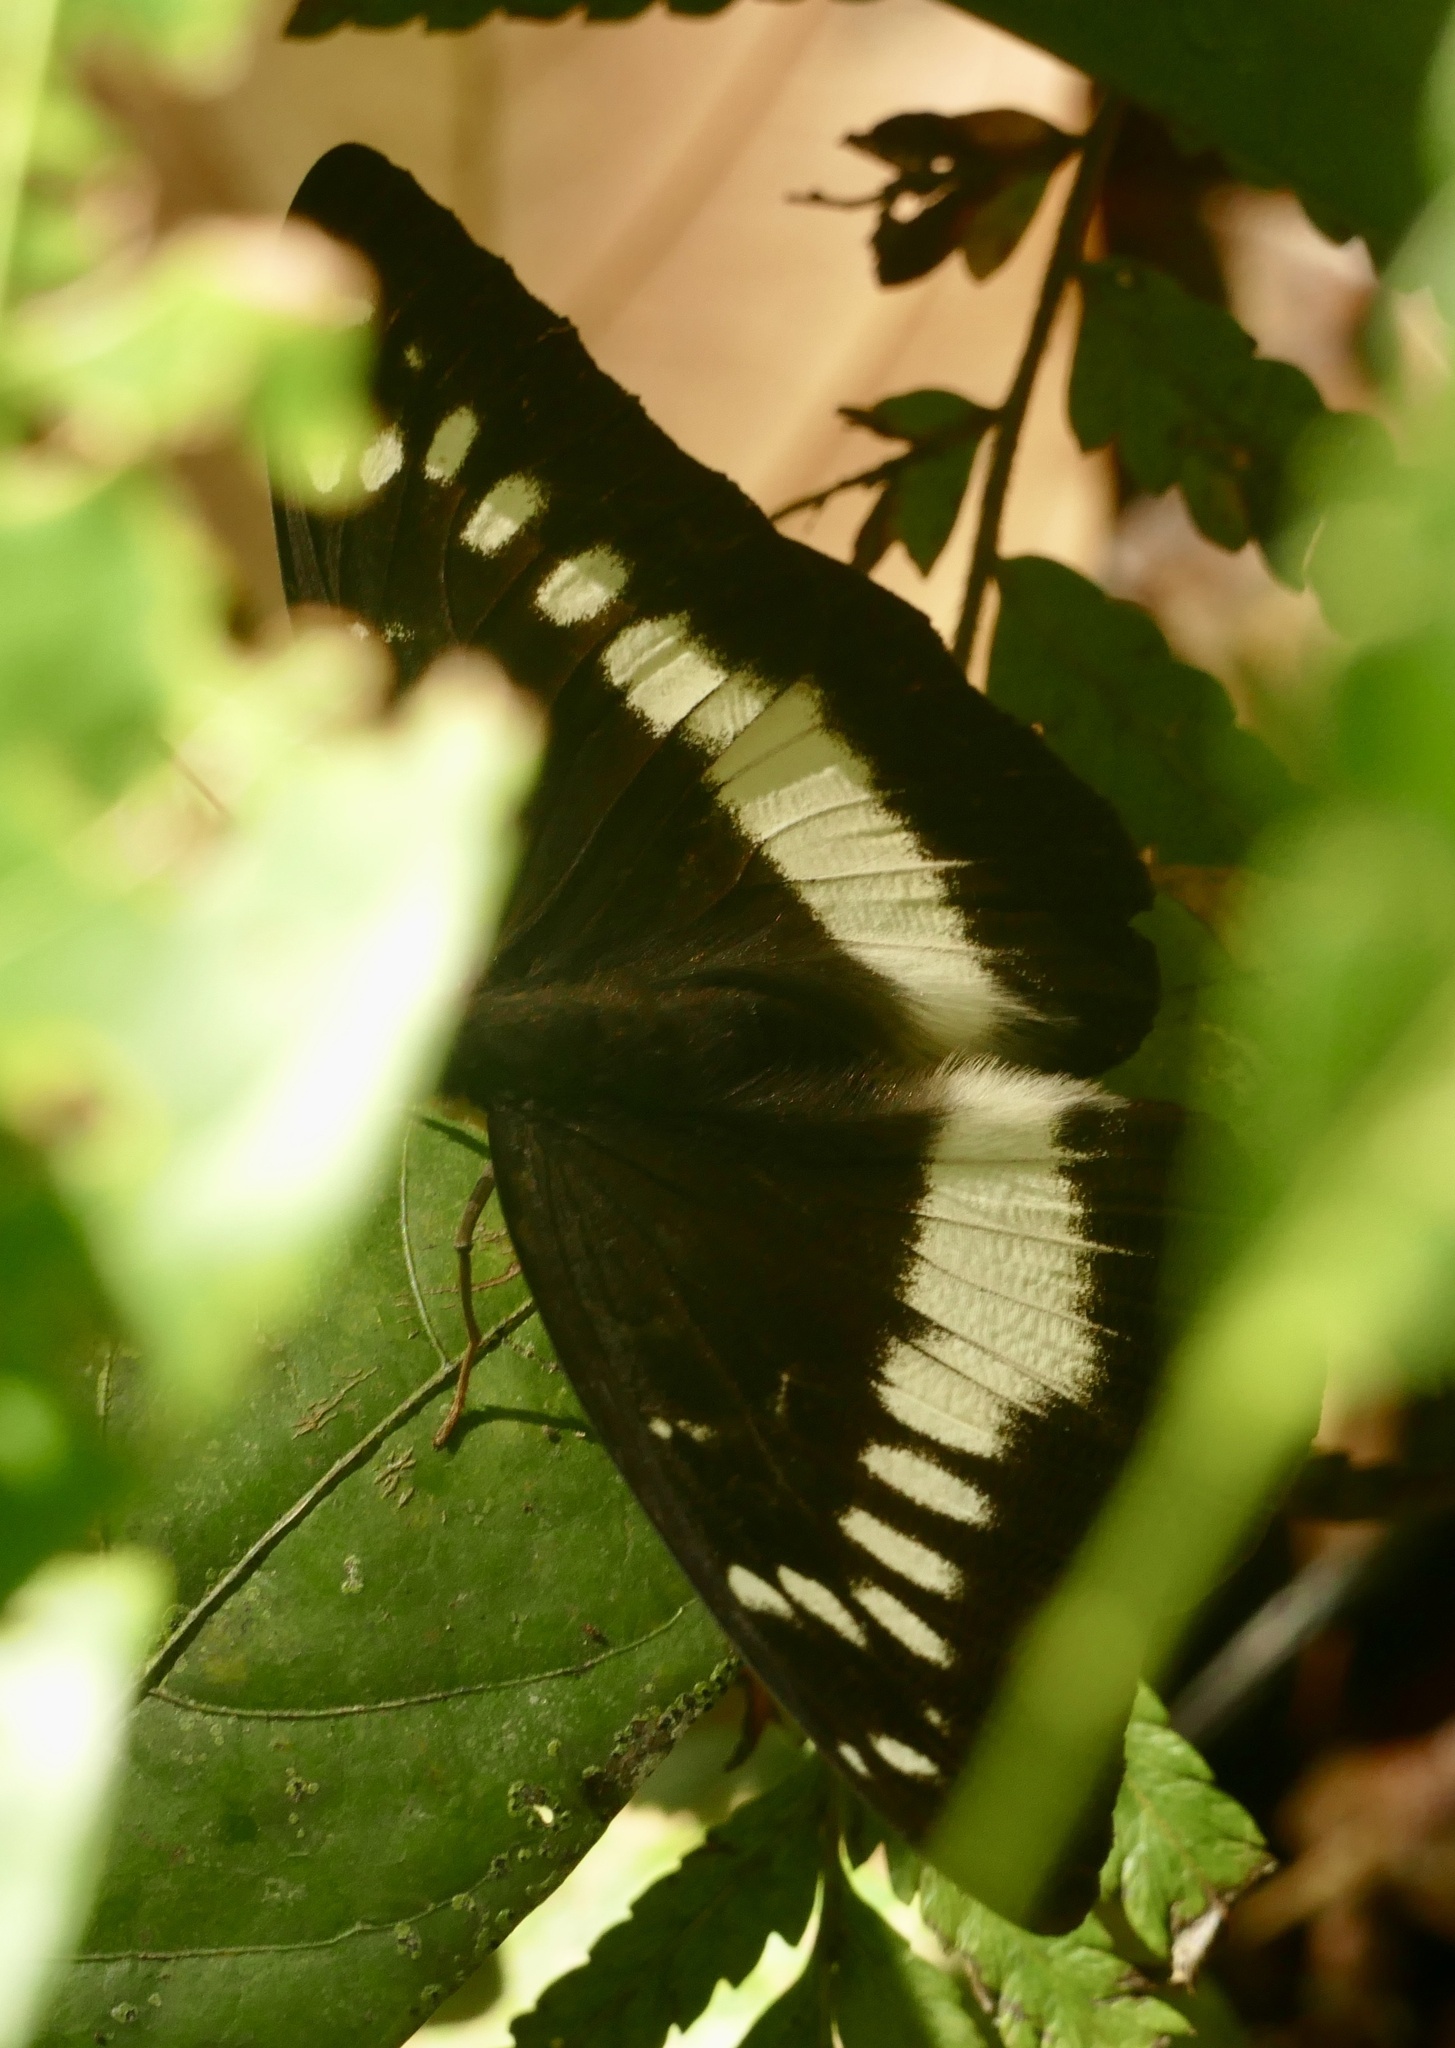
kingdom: Animalia
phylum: Arthropoda
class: Insecta
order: Lepidoptera
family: Nymphalidae
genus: Lexias
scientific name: Lexias aeropa
